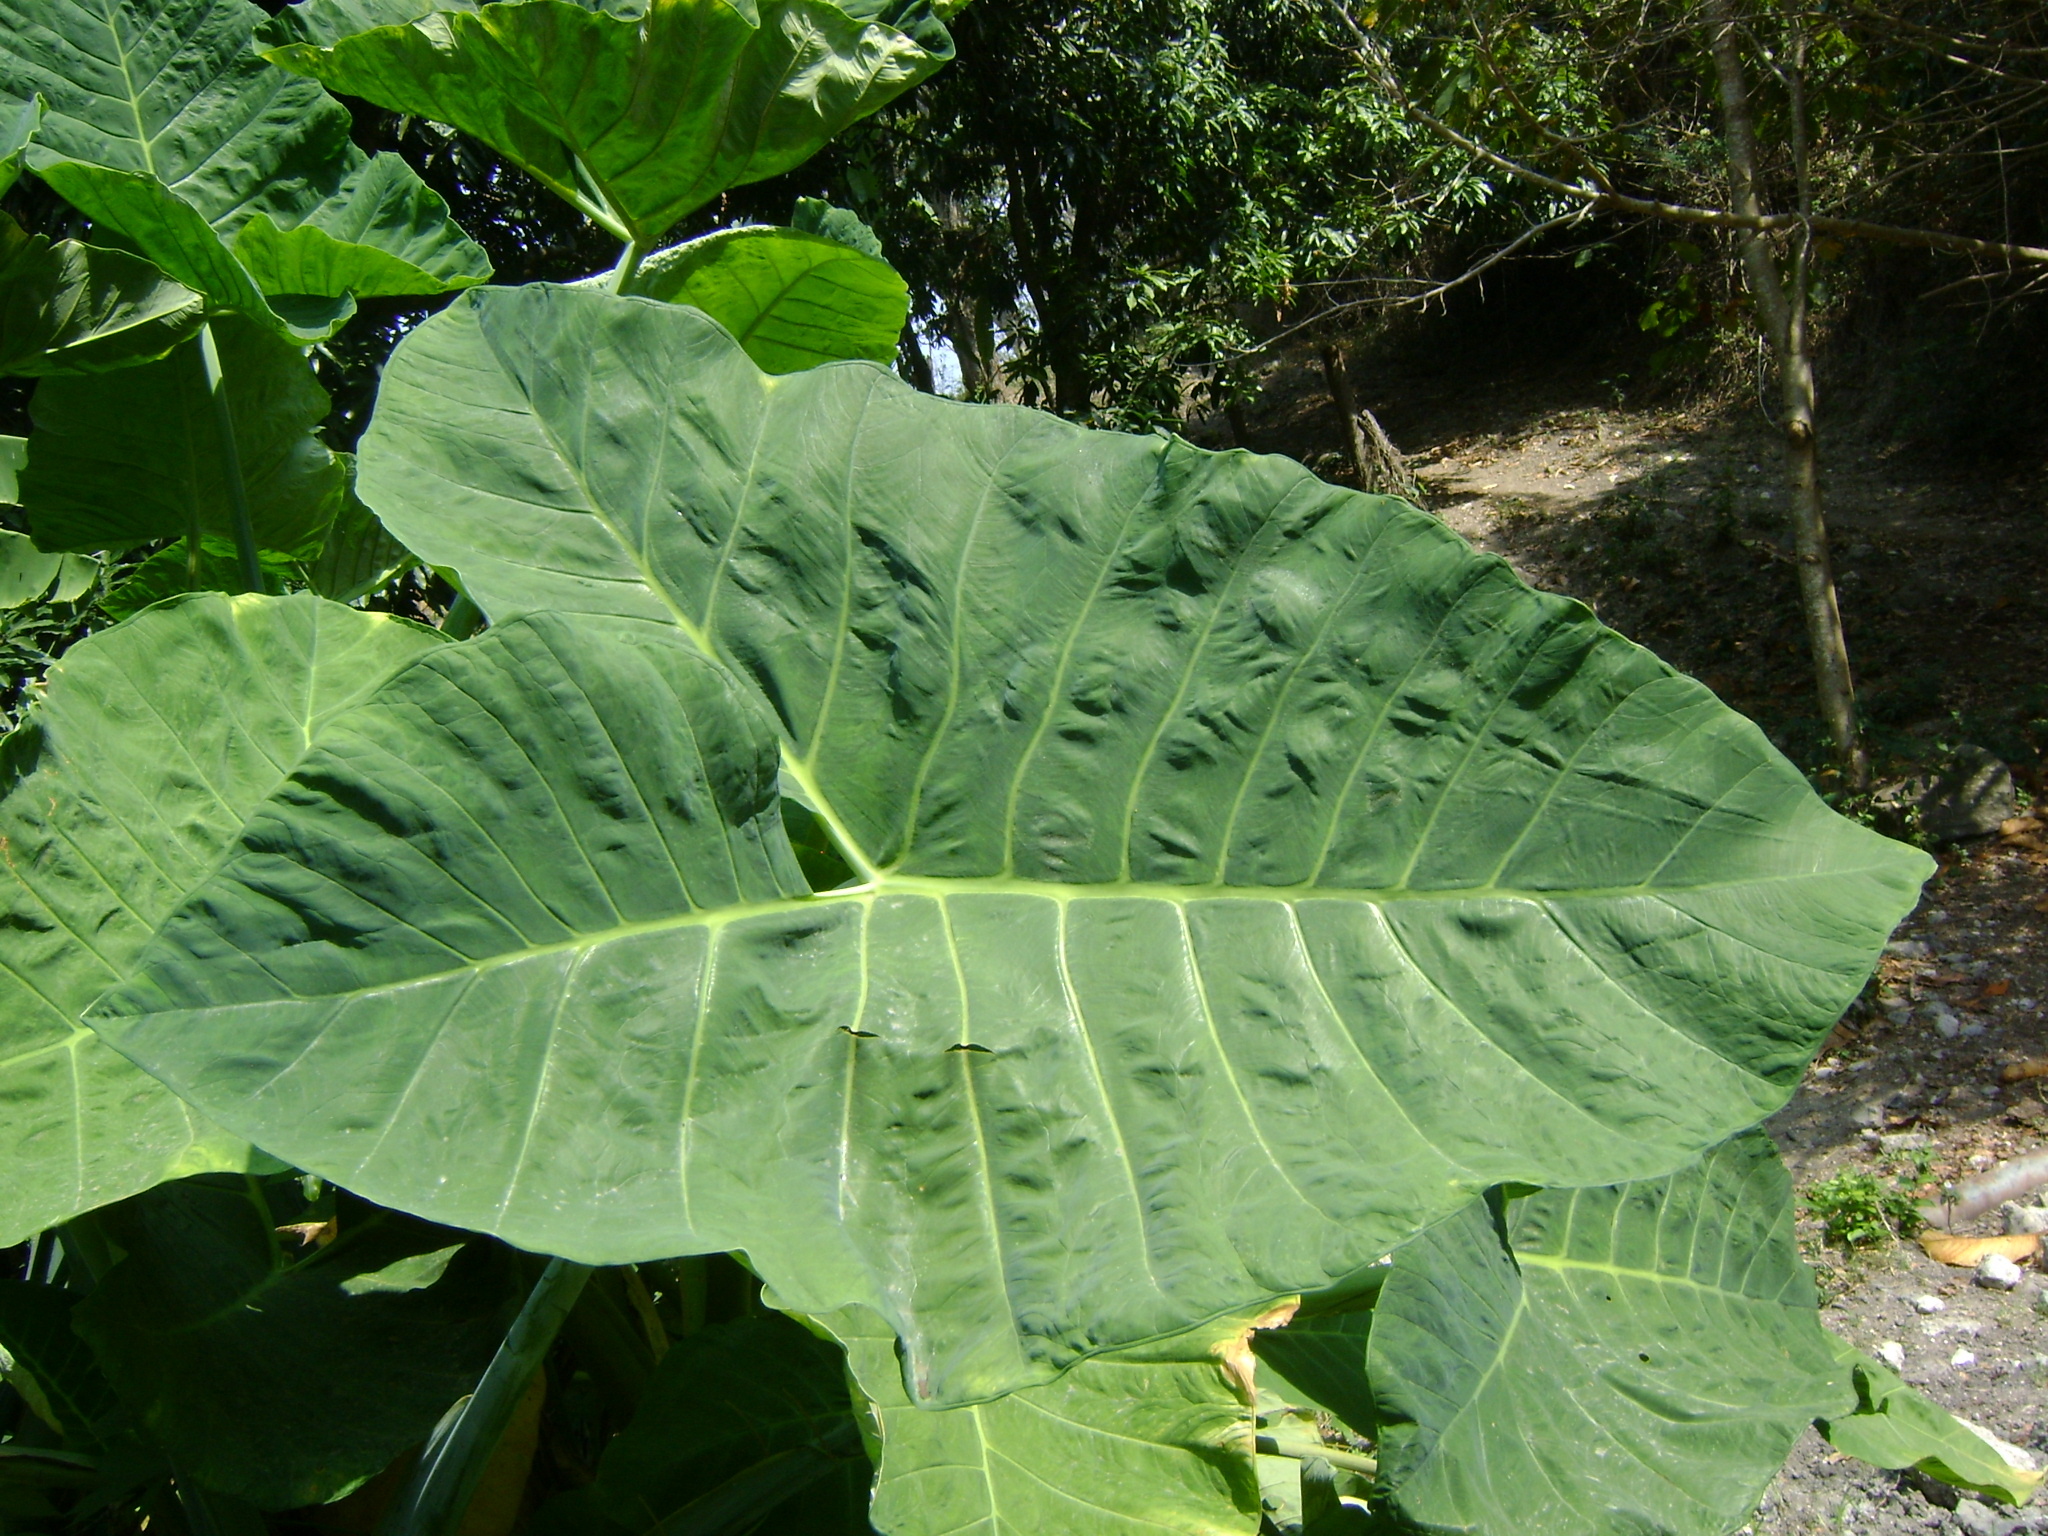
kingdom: Plantae
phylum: Tracheophyta
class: Liliopsida
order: Alismatales
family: Araceae
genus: Xanthosoma
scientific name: Xanthosoma sagittifolium
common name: Arrowleaf elephant's ear
